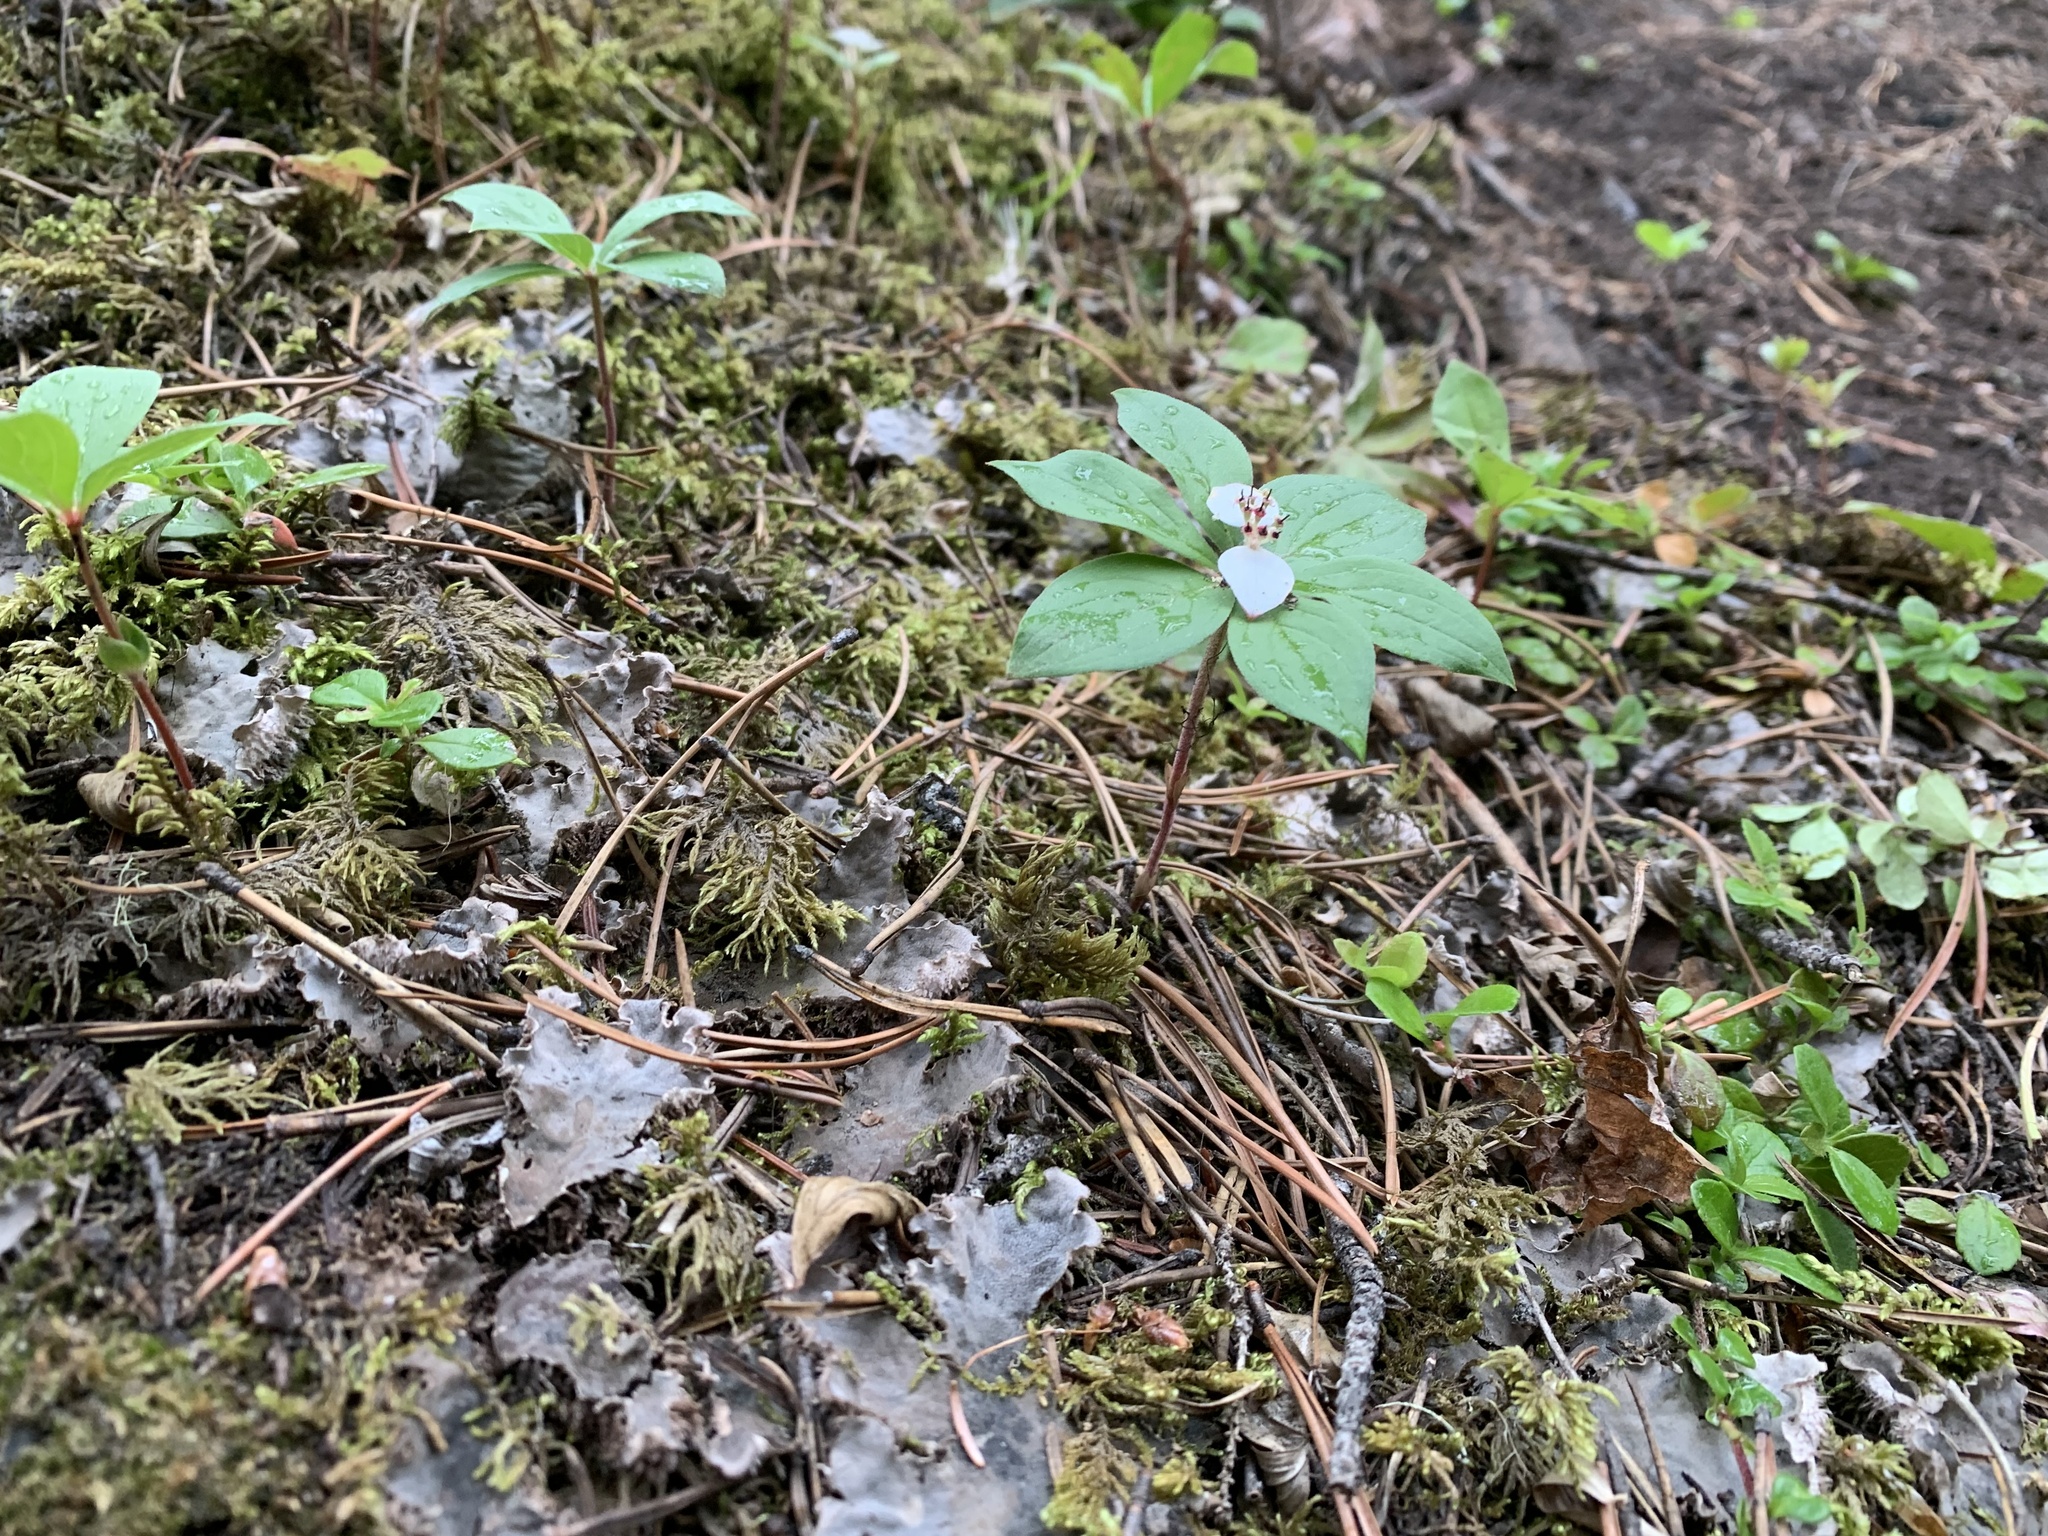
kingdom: Plantae
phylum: Tracheophyta
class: Magnoliopsida
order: Cornales
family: Cornaceae
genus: Cornus
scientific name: Cornus canadensis
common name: Creeping dogwood
